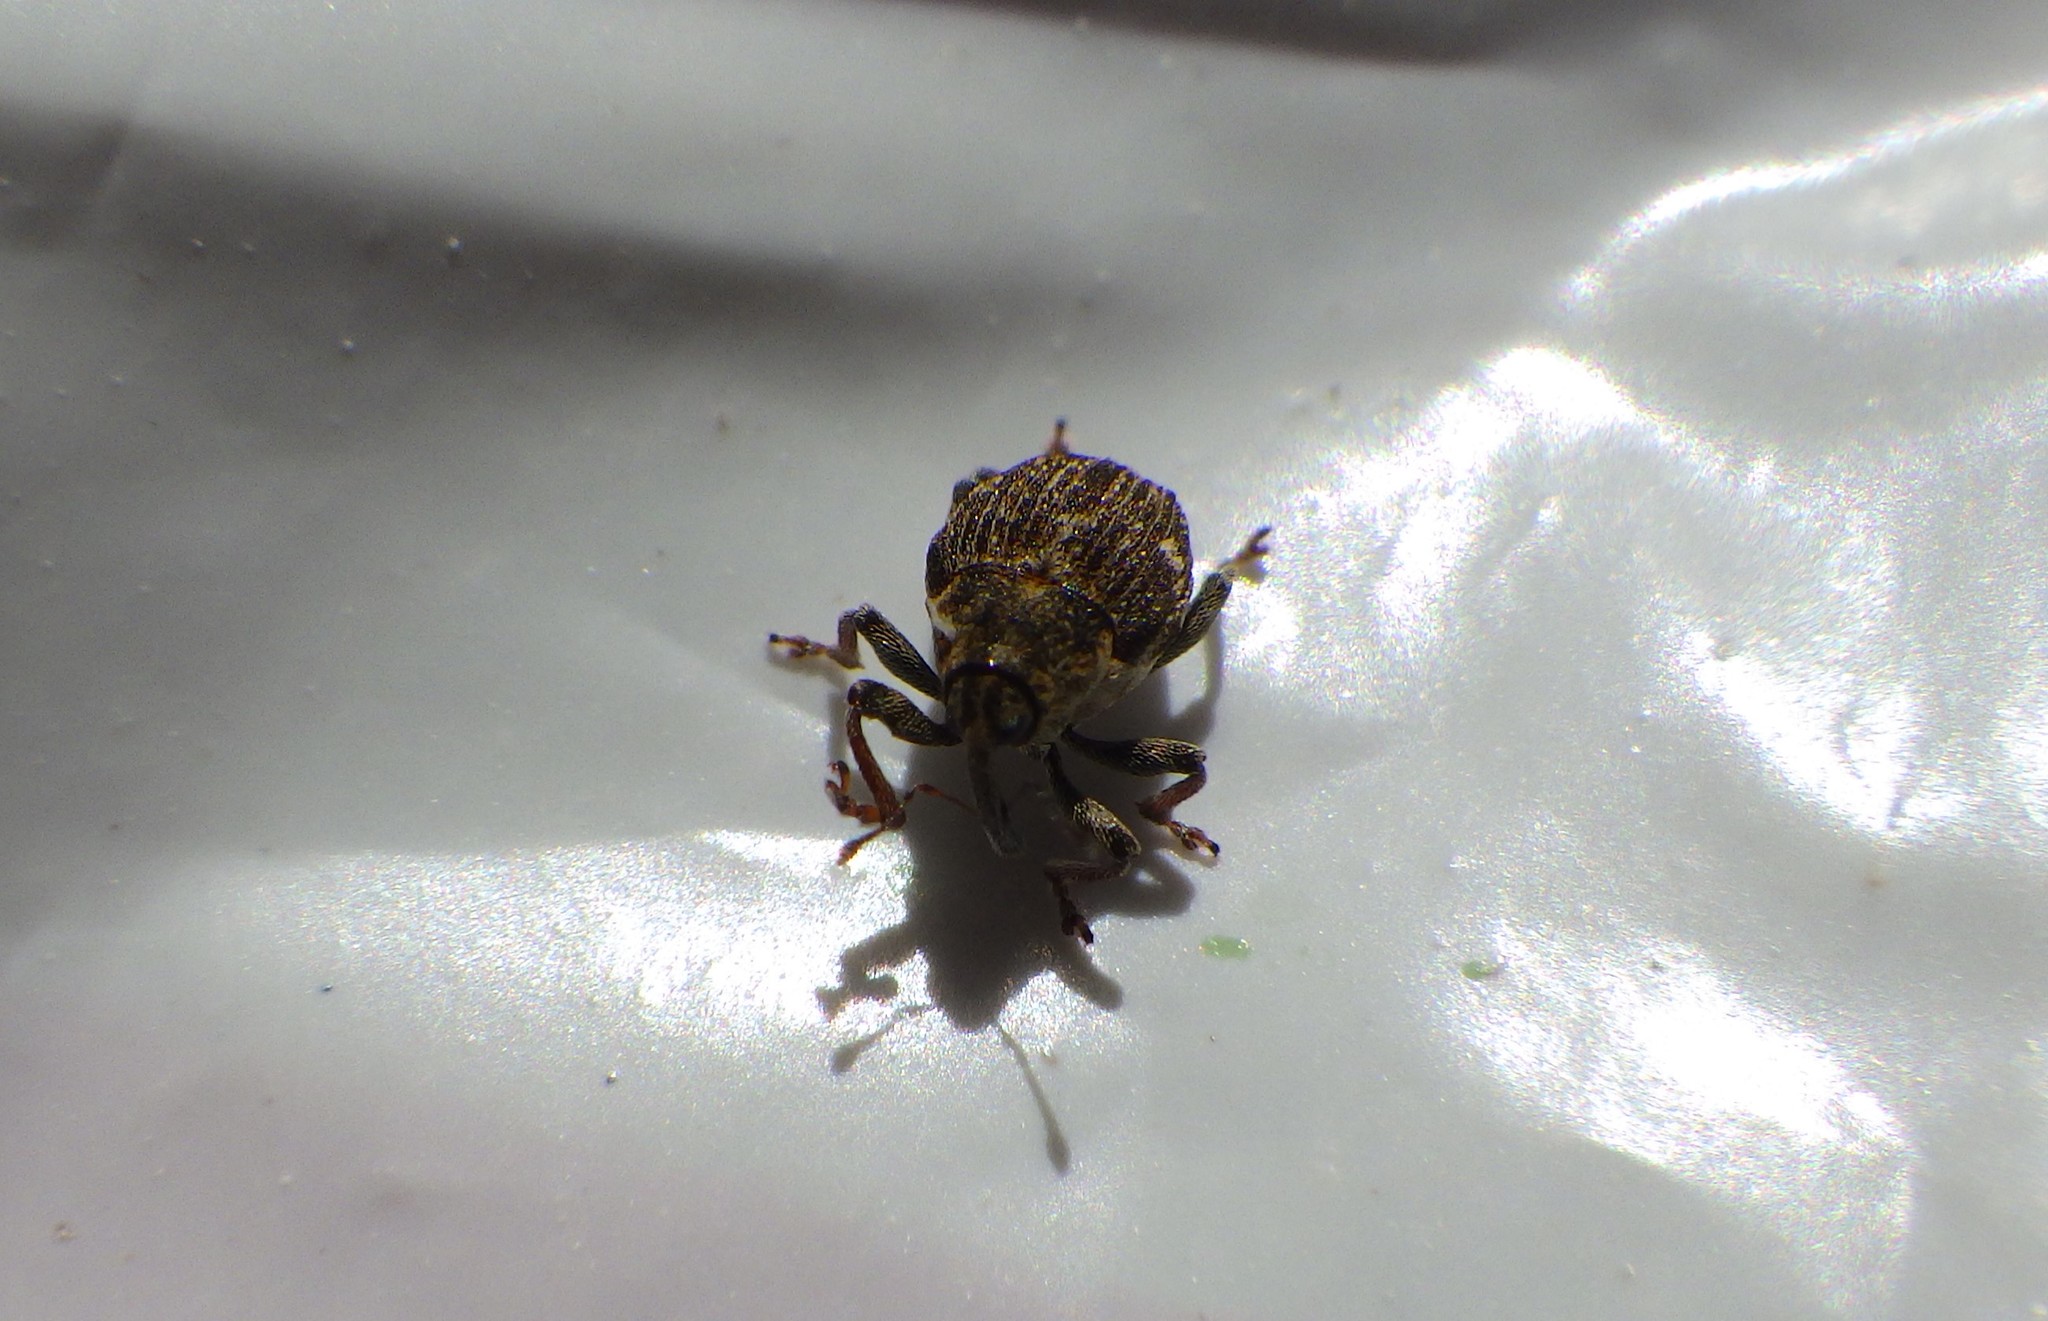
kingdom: Animalia
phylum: Arthropoda
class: Insecta
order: Coleoptera
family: Curculionidae
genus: Nedyus
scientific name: Nedyus quadrimaculatus
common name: Small nettle weevil
